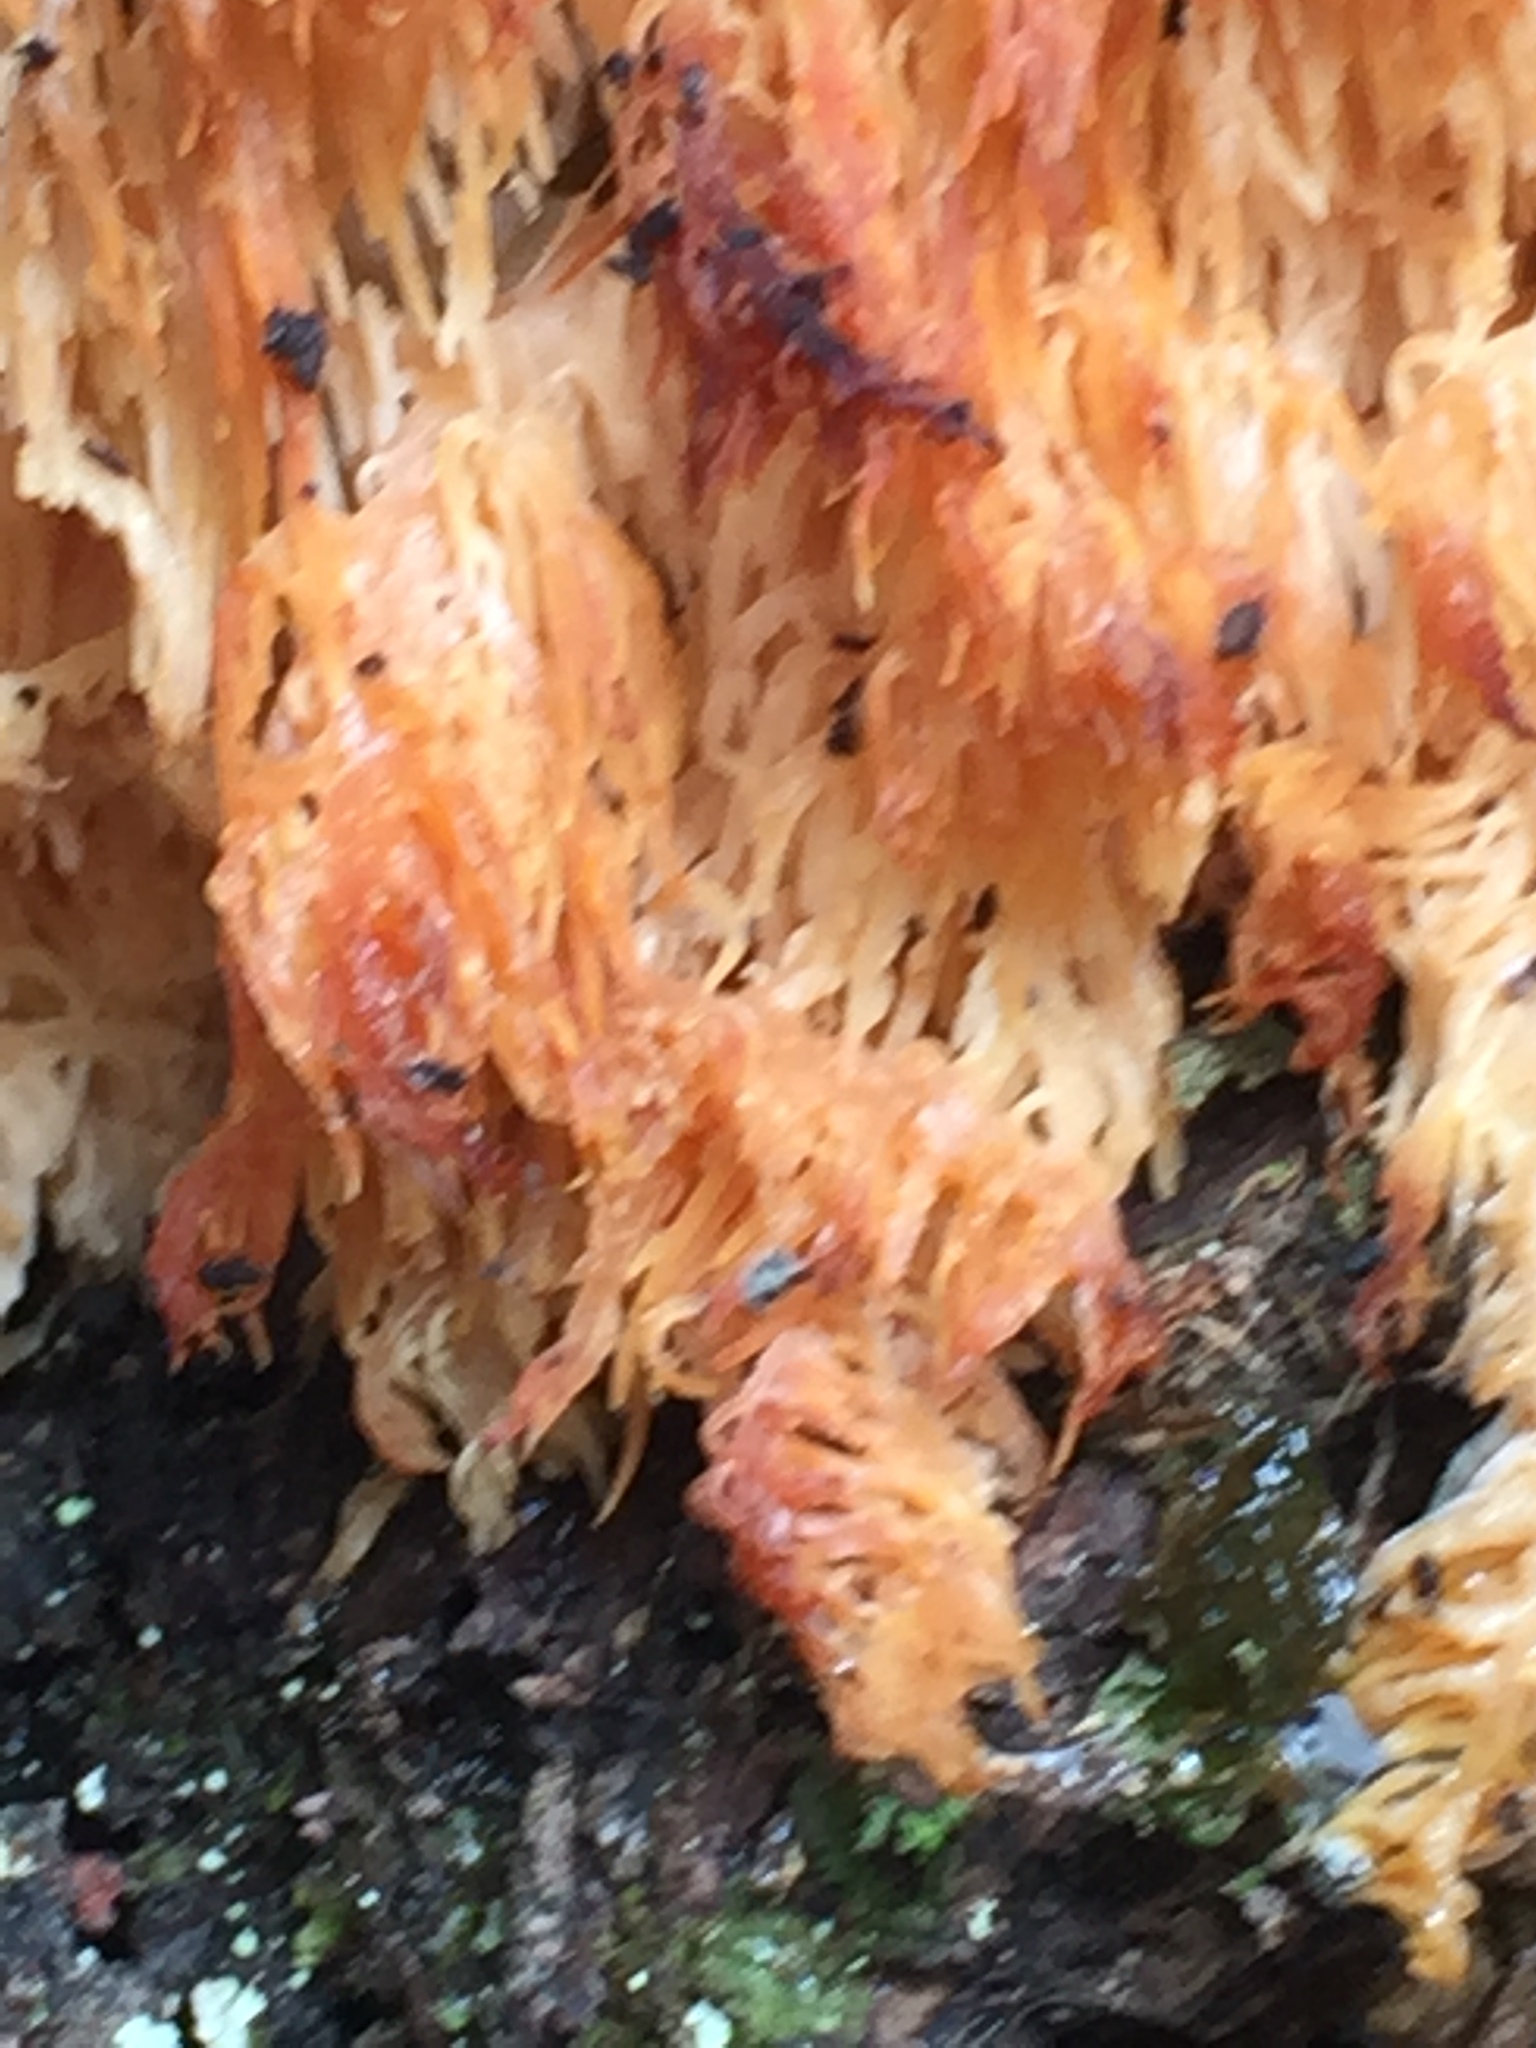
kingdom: Fungi
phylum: Basidiomycota
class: Agaricomycetes
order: Russulales
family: Hericiaceae
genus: Hericium
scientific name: Hericium novae-zealandiae
